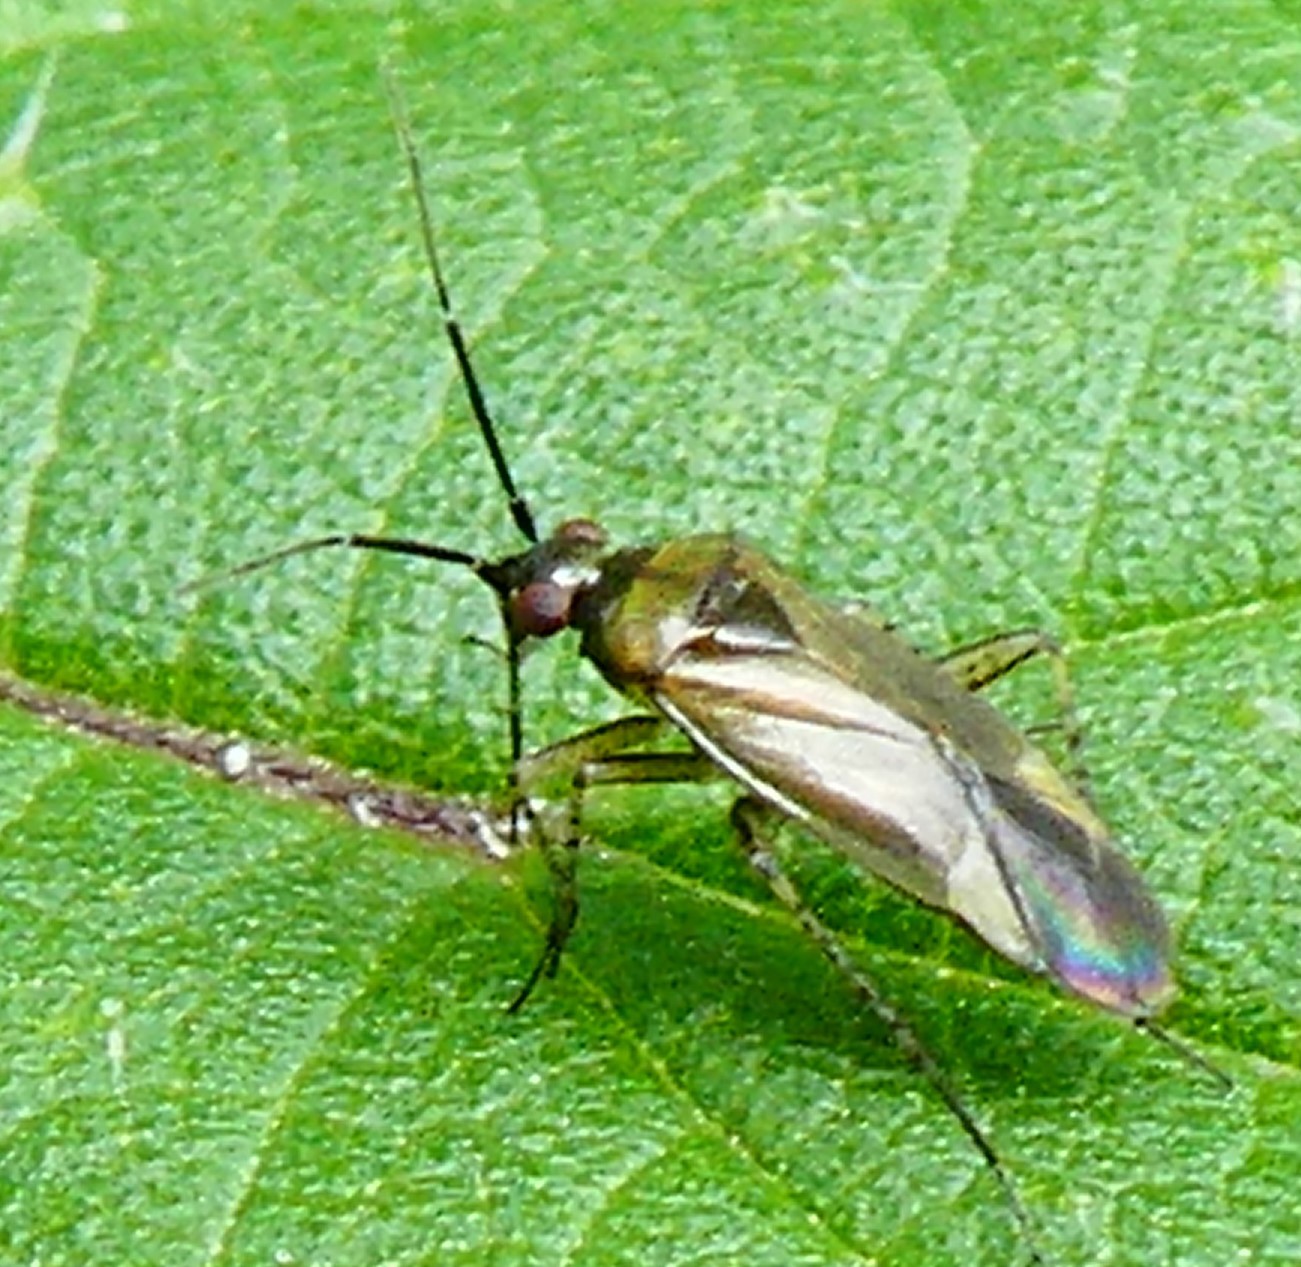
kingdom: Animalia
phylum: Arthropoda
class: Insecta
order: Hemiptera
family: Miridae
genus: Plagiognathus
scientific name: Plagiognathus arbustorum
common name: Plant bug
